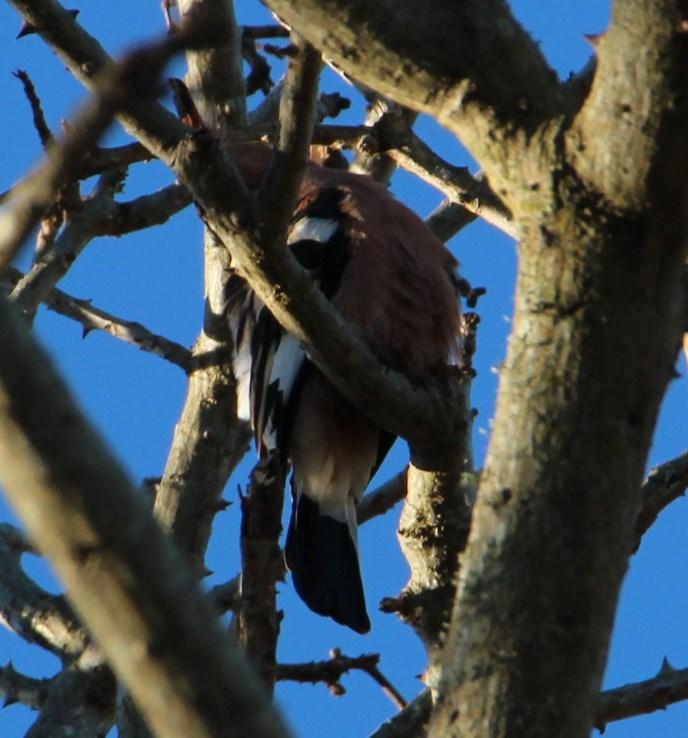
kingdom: Animalia
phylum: Chordata
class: Aves
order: Bucerotiformes
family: Upupidae
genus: Upupa
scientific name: Upupa africana
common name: African hoopoe
